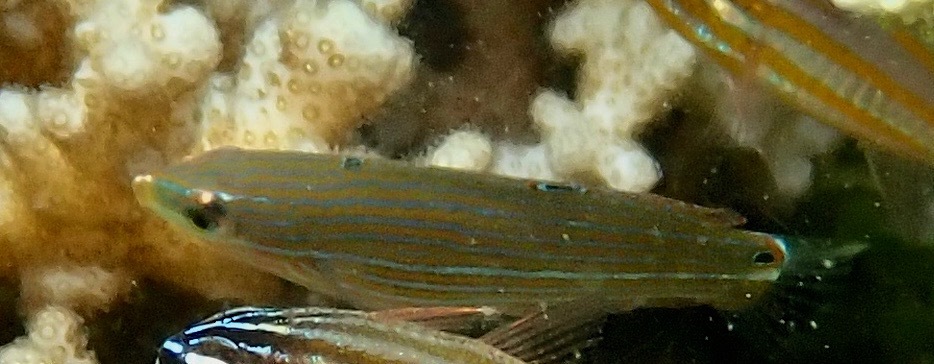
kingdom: Animalia
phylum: Chordata
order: Perciformes
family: Labridae
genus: Halichoeres
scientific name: Halichoeres biocellatus
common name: False-eyed wrasse
